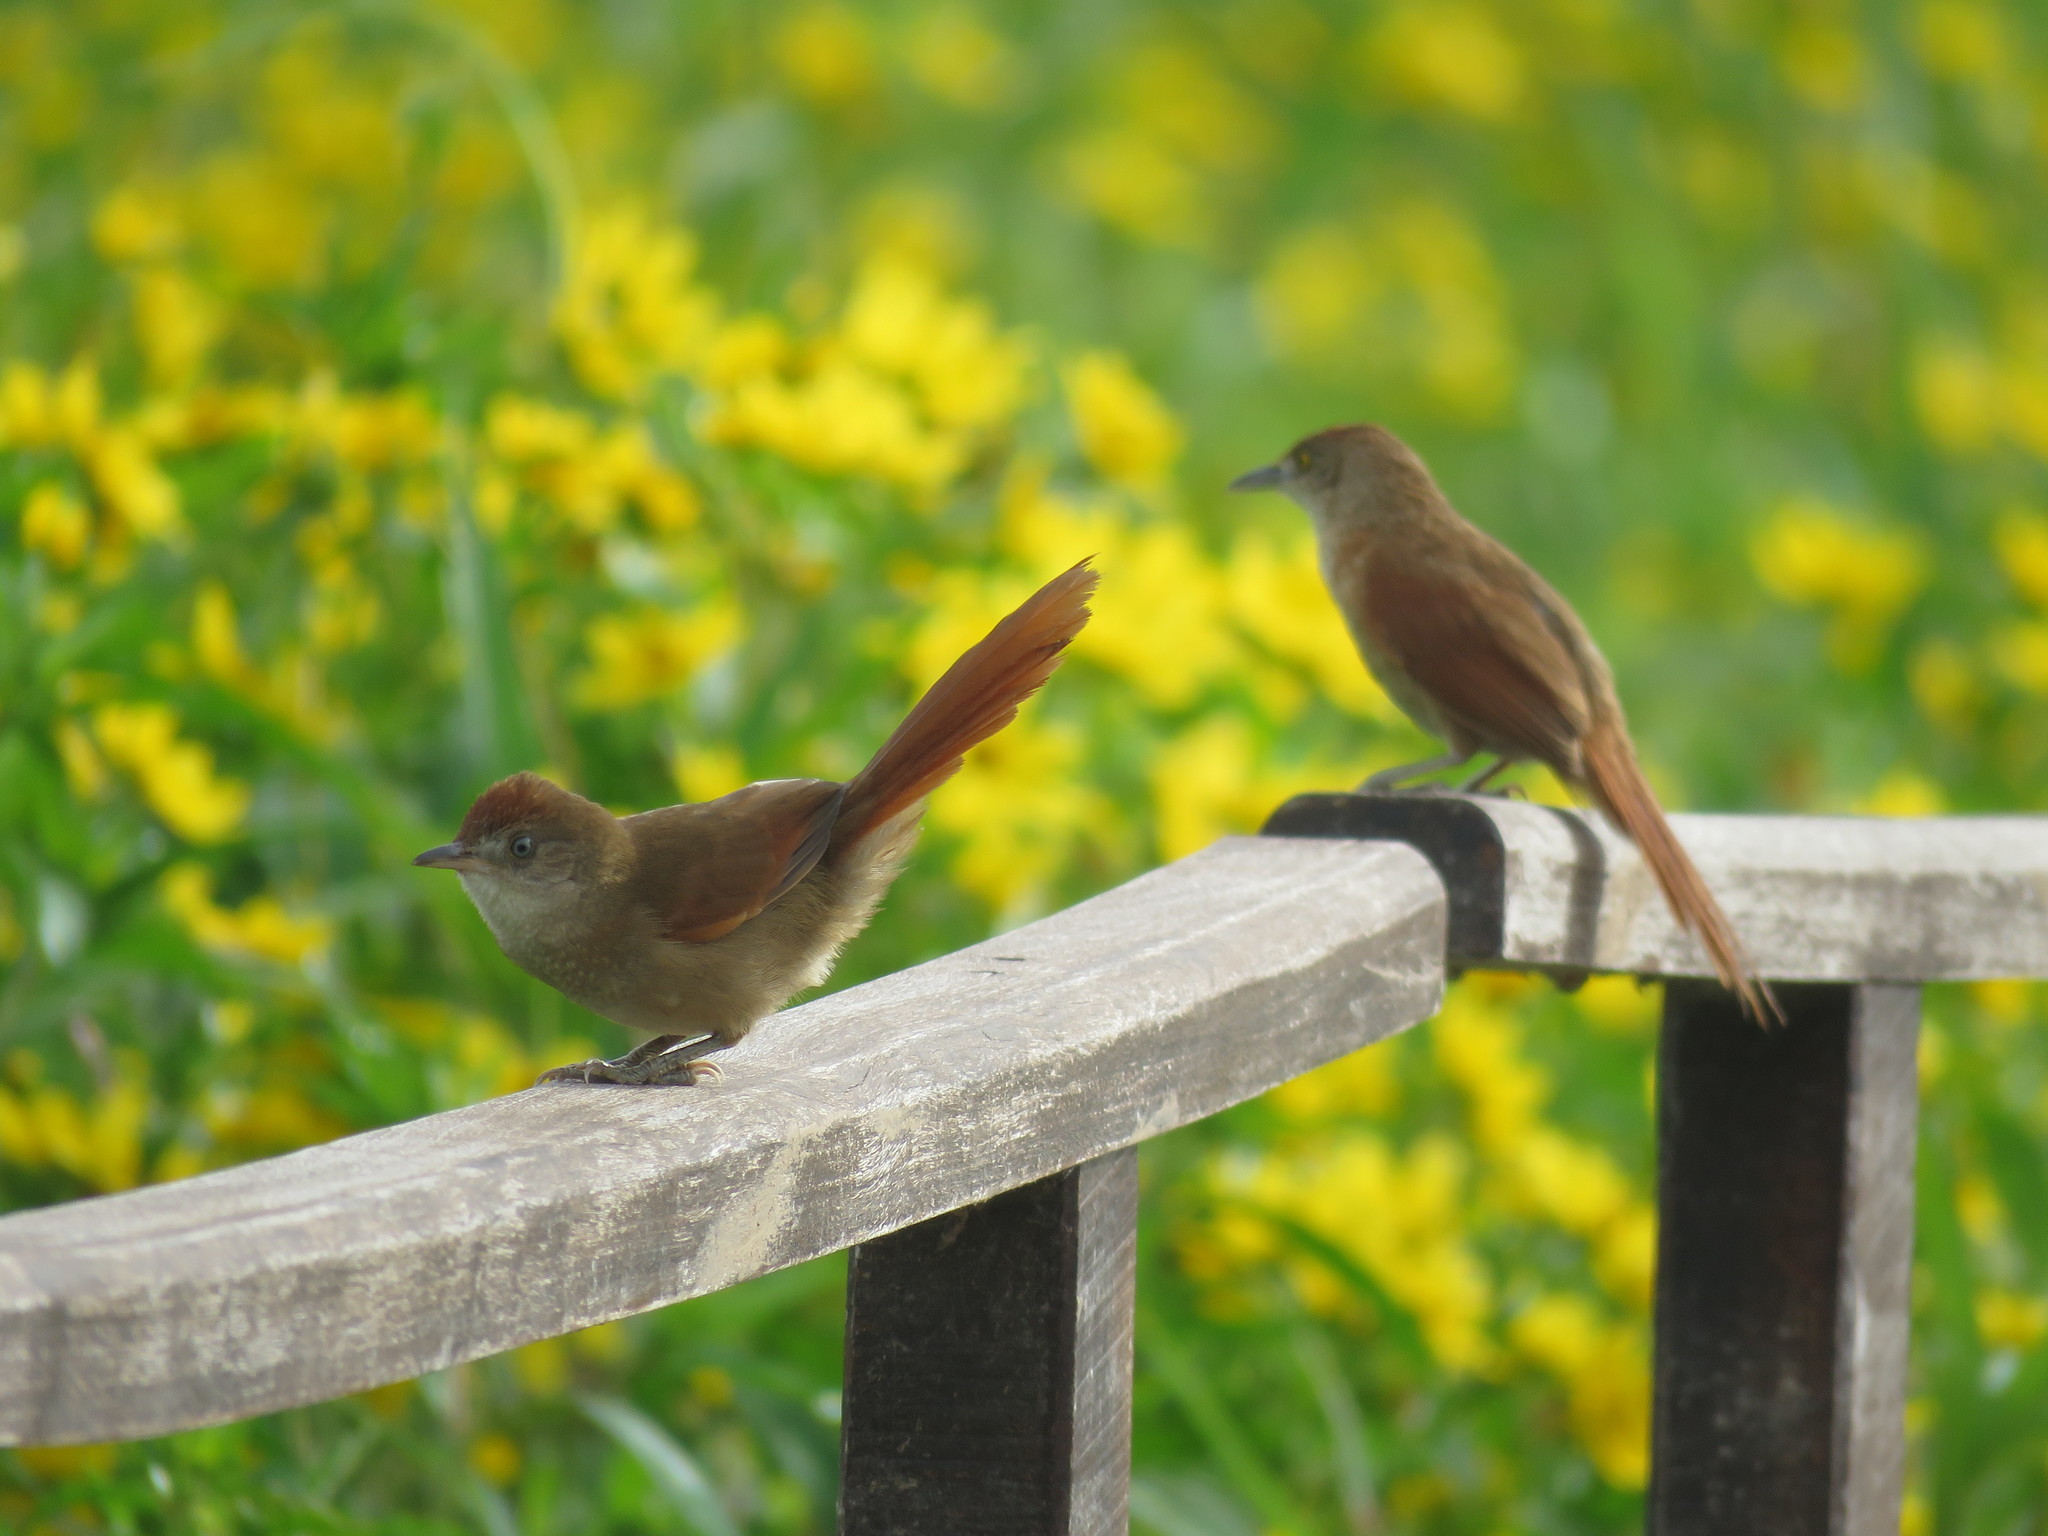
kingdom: Animalia
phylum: Chordata
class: Aves
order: Passeriformes
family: Furnariidae
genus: Phacellodomus
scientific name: Phacellodomus ruber
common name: Greater thornbird
